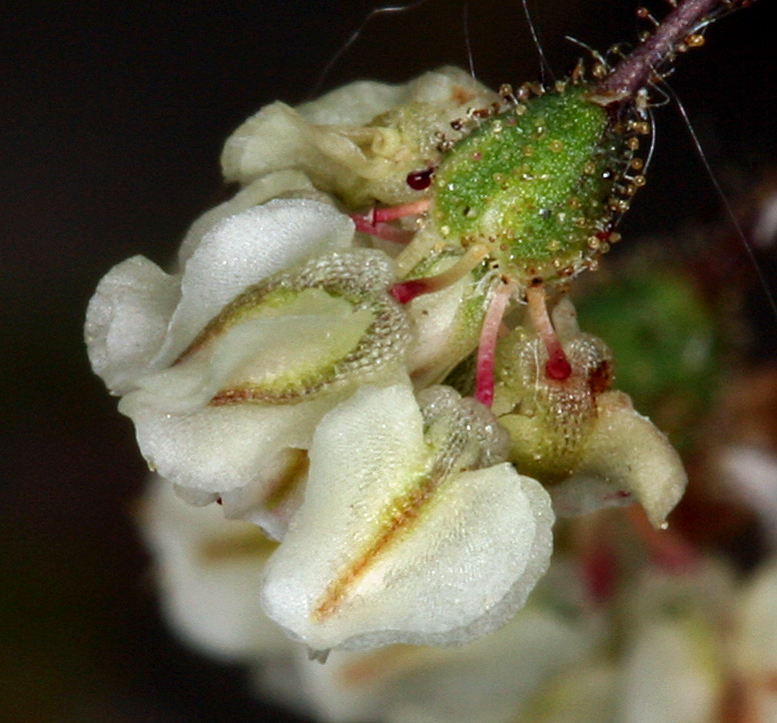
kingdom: Plantae
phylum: Tracheophyta
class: Magnoliopsida
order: Caryophyllales
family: Polygonaceae
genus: Eriogonum
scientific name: Eriogonum brachypodum
